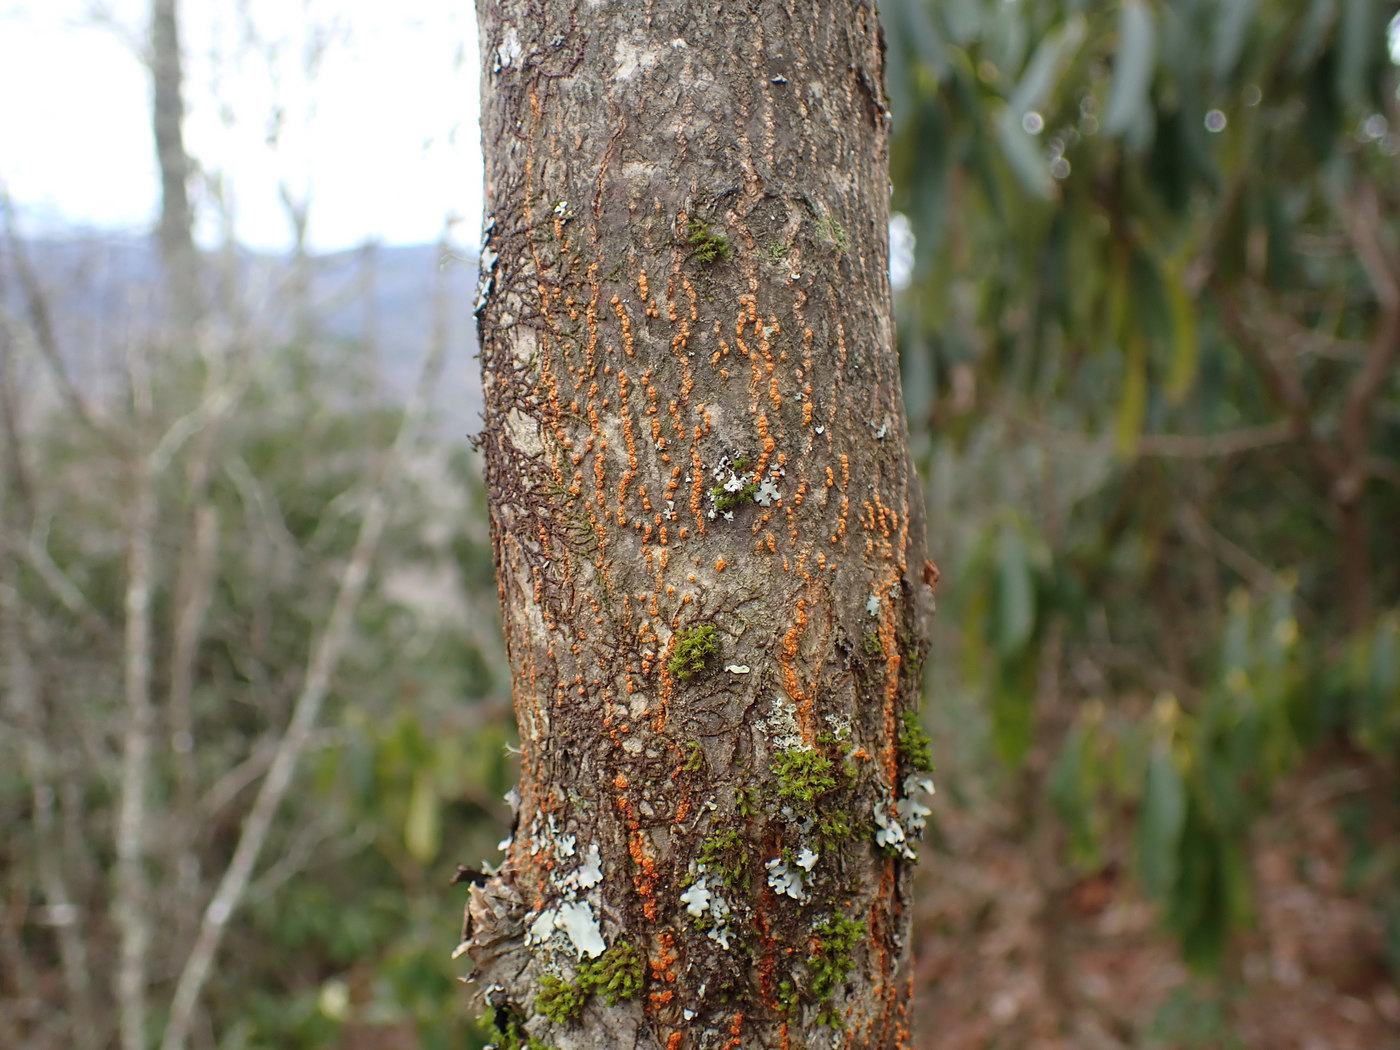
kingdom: Fungi
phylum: Ascomycota
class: Sordariomycetes
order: Diaporthales
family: Cryphonectriaceae
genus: Cryphonectria
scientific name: Cryphonectria parasitica
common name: Chestnut blight
